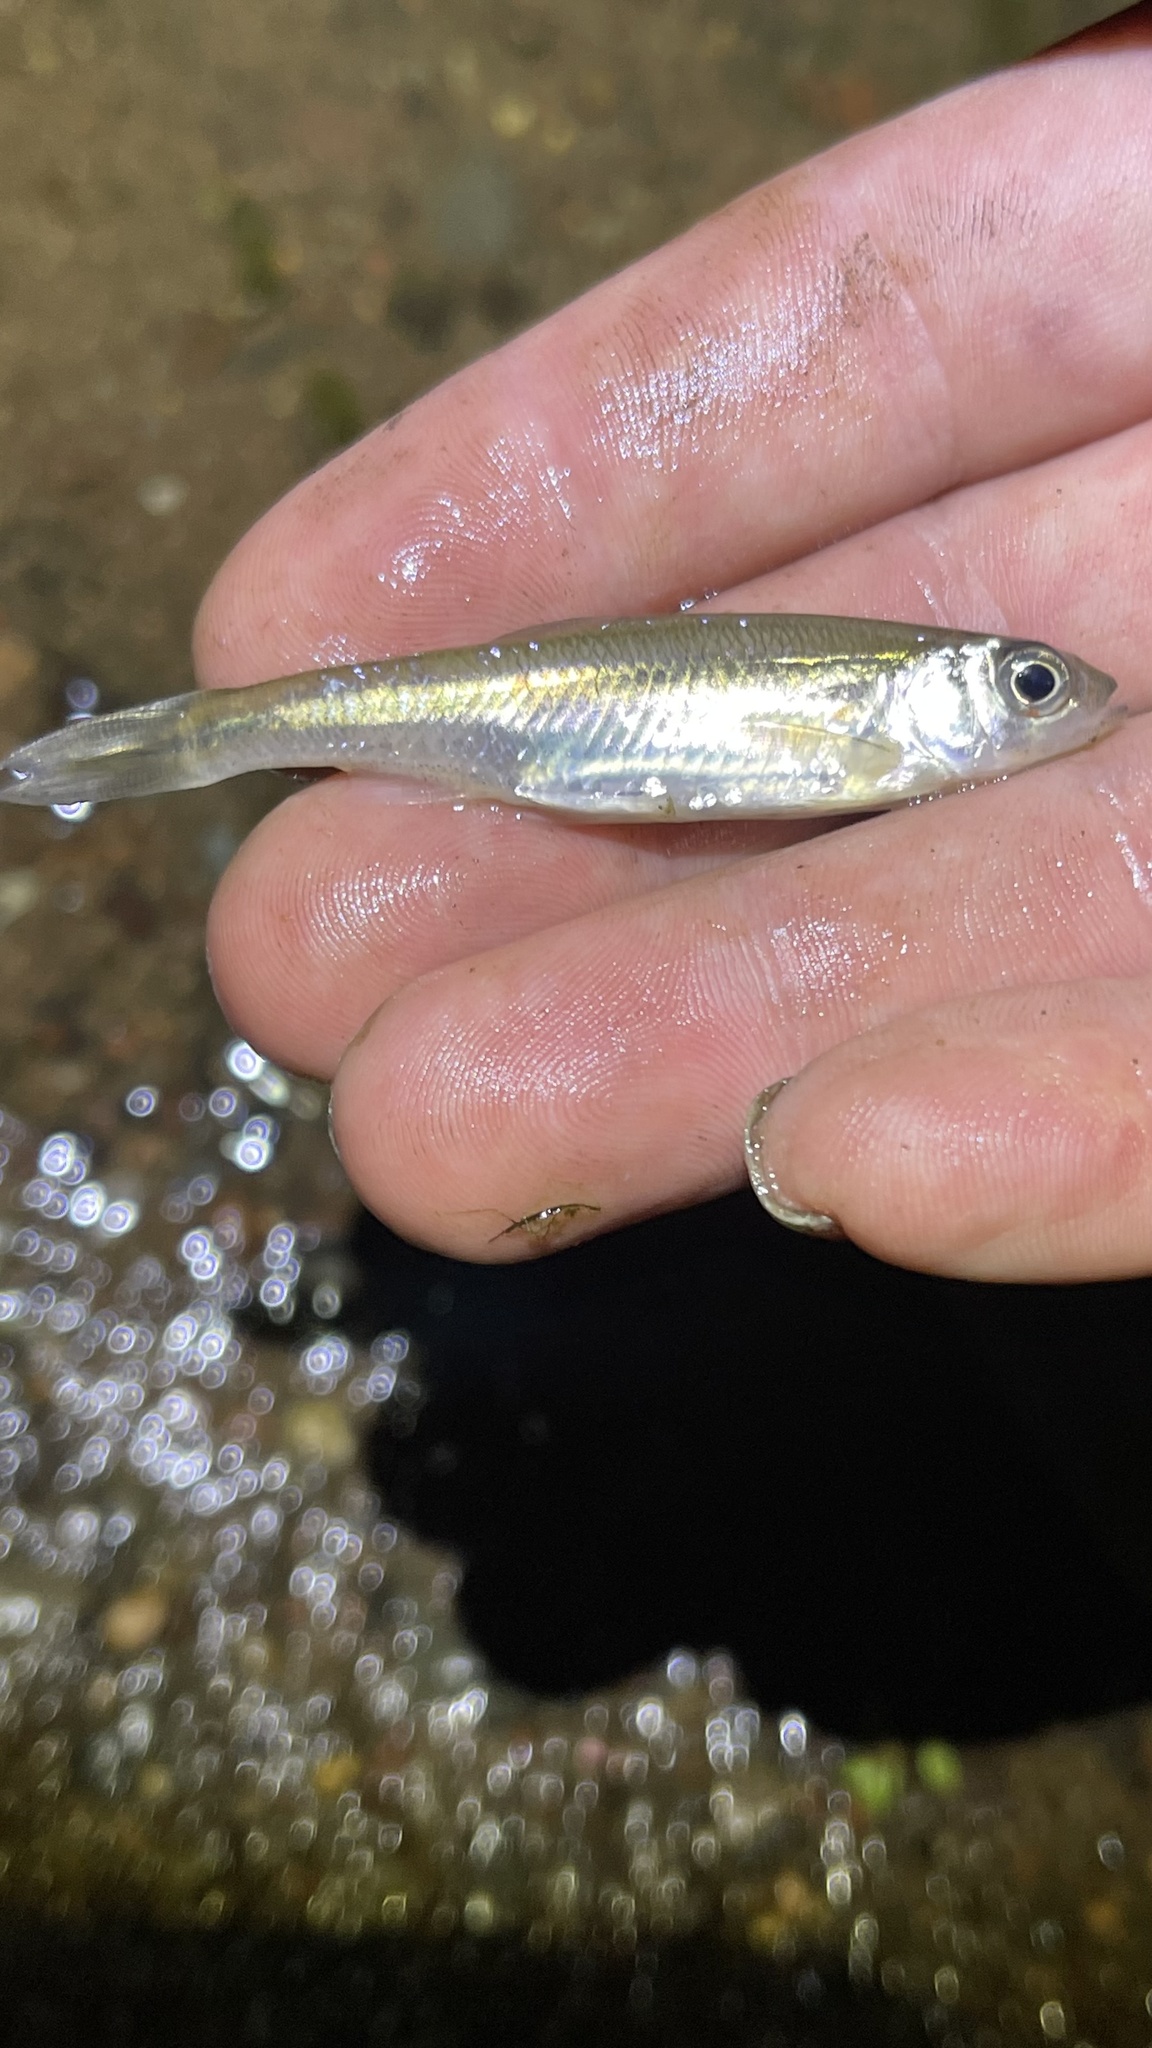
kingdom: Animalia
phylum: Chordata
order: Cypriniformes
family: Cyprinidae
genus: Luxilus
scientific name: Luxilus cornutus
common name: Common shiner
